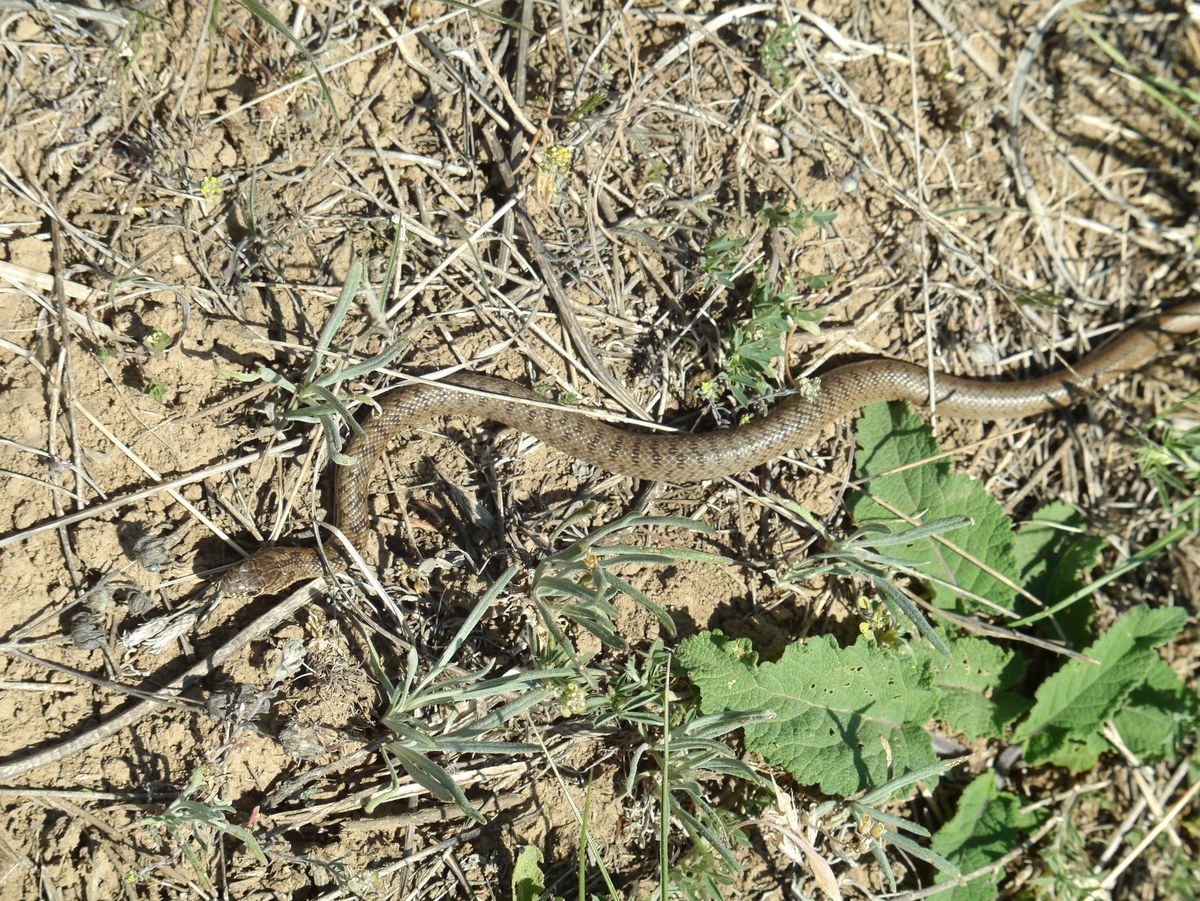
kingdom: Animalia
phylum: Chordata
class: Squamata
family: Colubridae
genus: Dolichophis
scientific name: Dolichophis caspius
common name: Large whip snake
